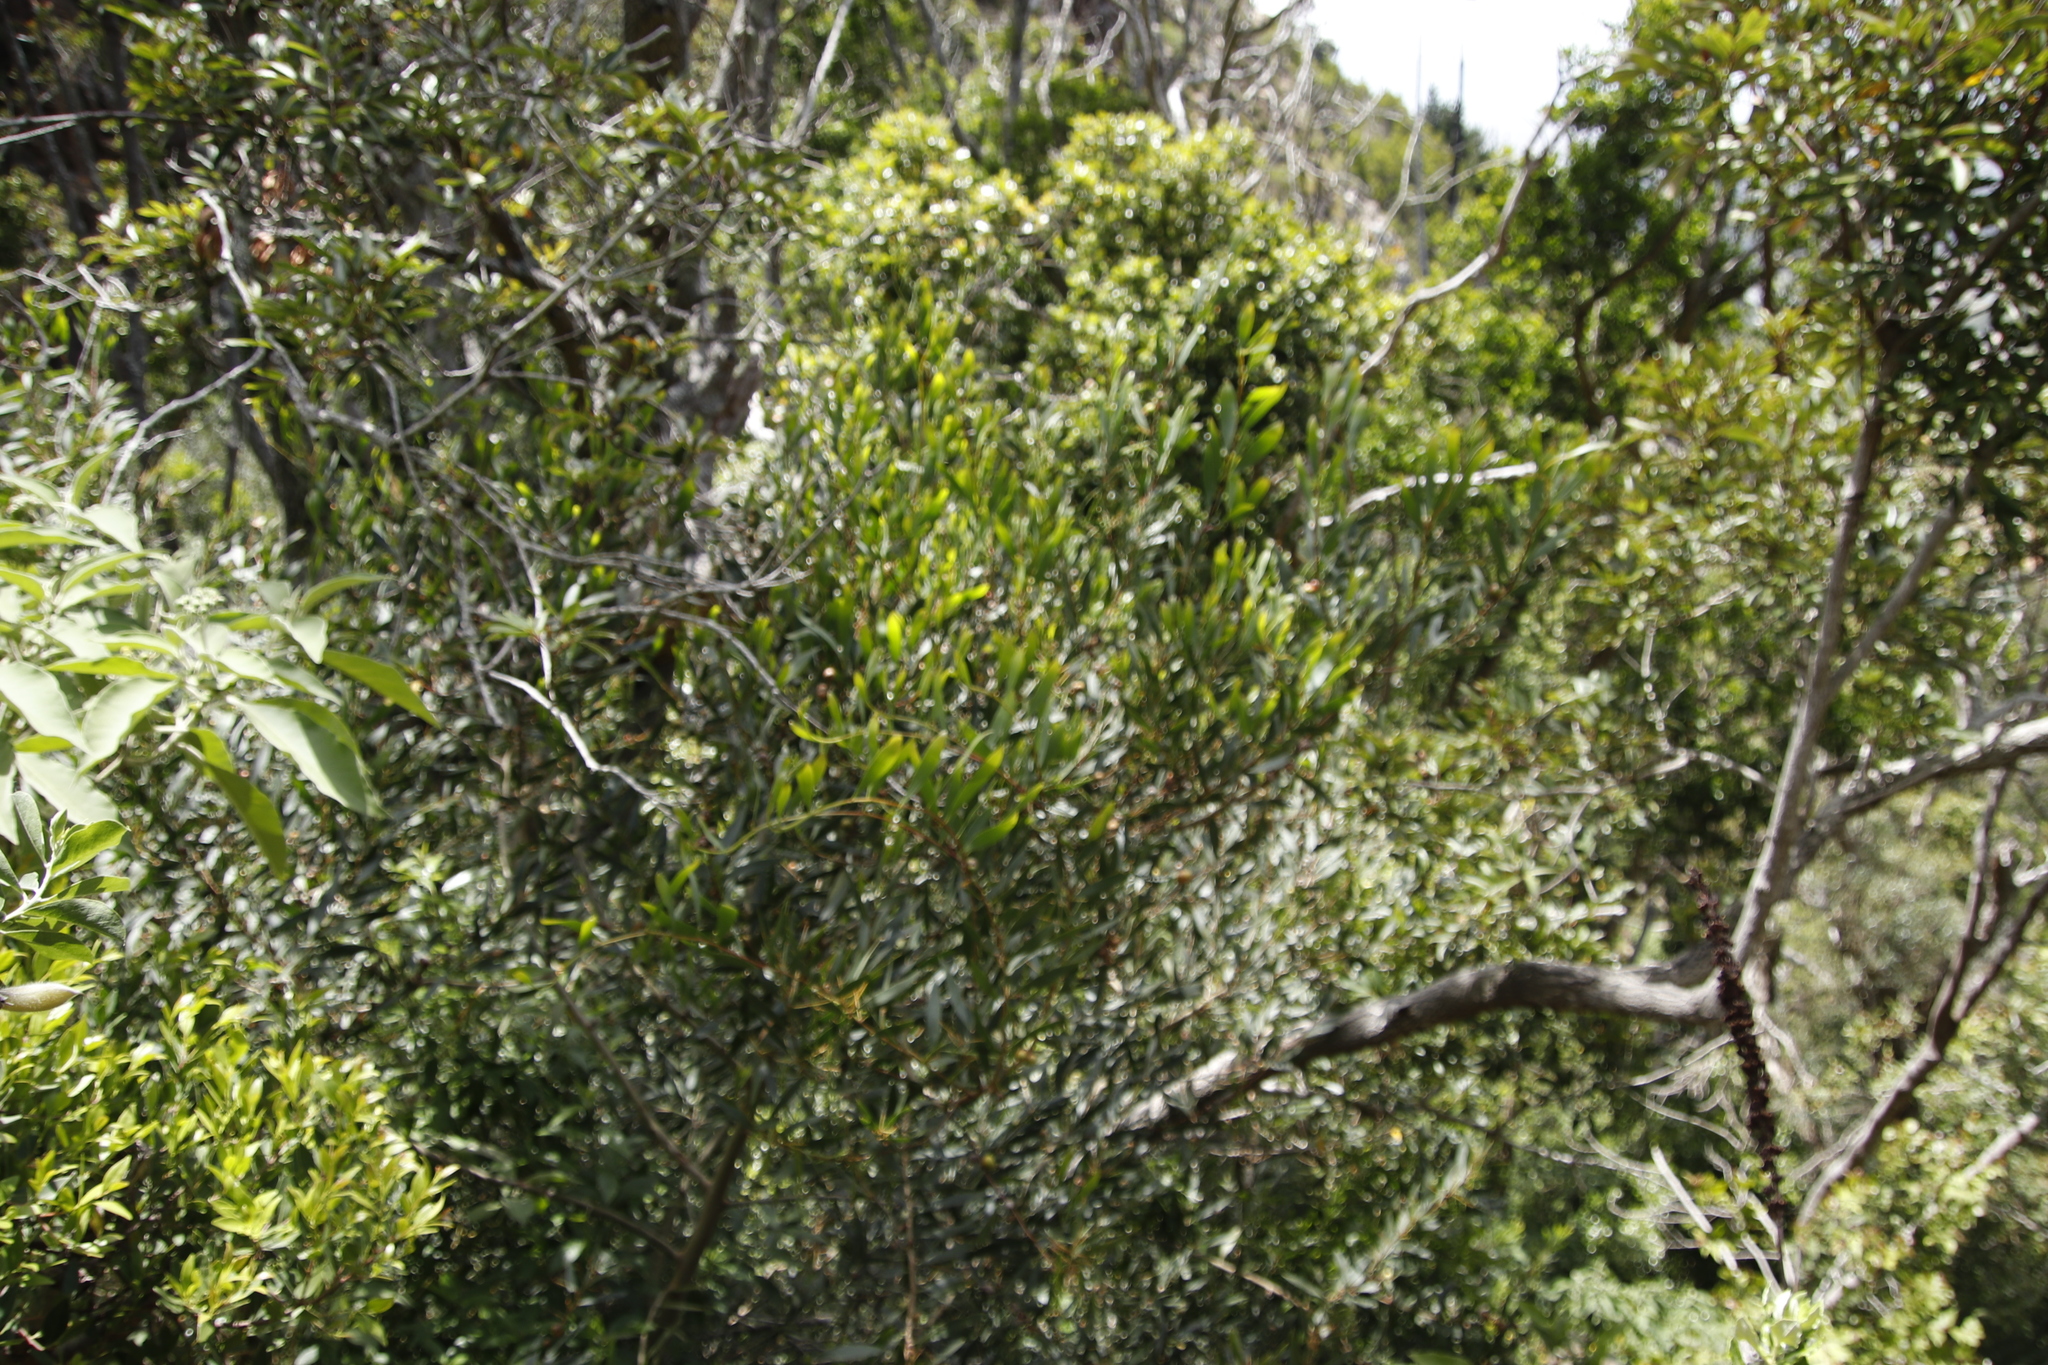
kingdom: Plantae
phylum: Tracheophyta
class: Magnoliopsida
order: Fabales
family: Fabaceae
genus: Acacia
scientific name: Acacia longifolia
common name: Sydney golden wattle
